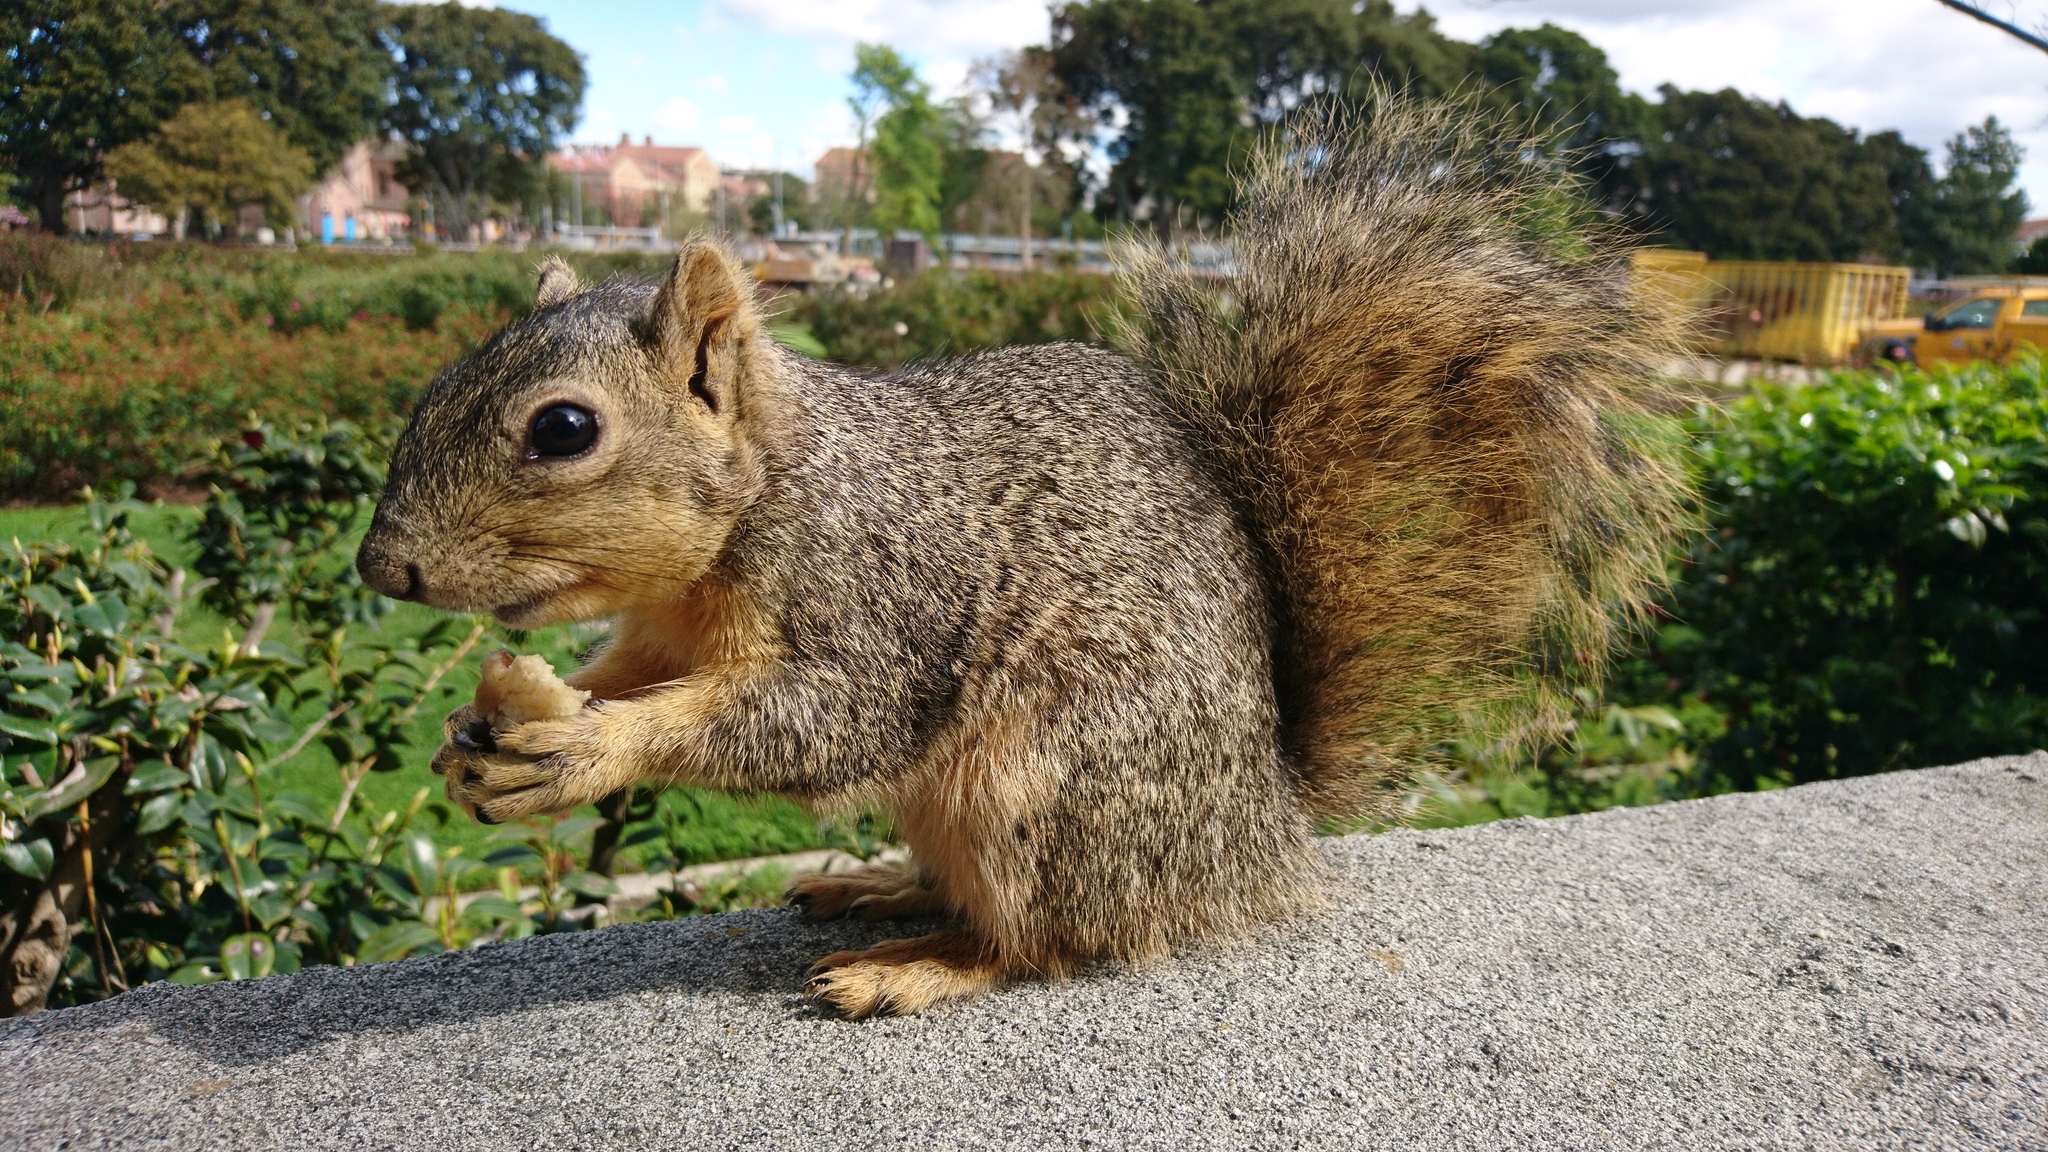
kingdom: Animalia
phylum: Chordata
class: Mammalia
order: Rodentia
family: Sciuridae
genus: Sciurus
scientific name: Sciurus niger
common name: Fox squirrel
